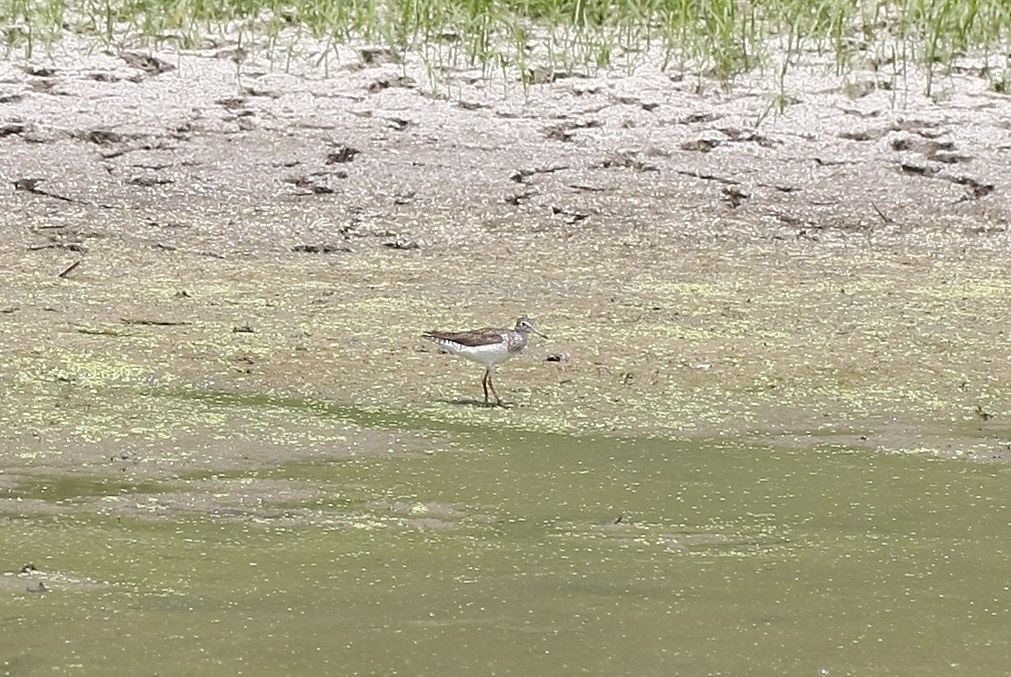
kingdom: Animalia
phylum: Chordata
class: Aves
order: Charadriiformes
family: Scolopacidae
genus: Tringa
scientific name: Tringa solitaria
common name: Solitary sandpiper
